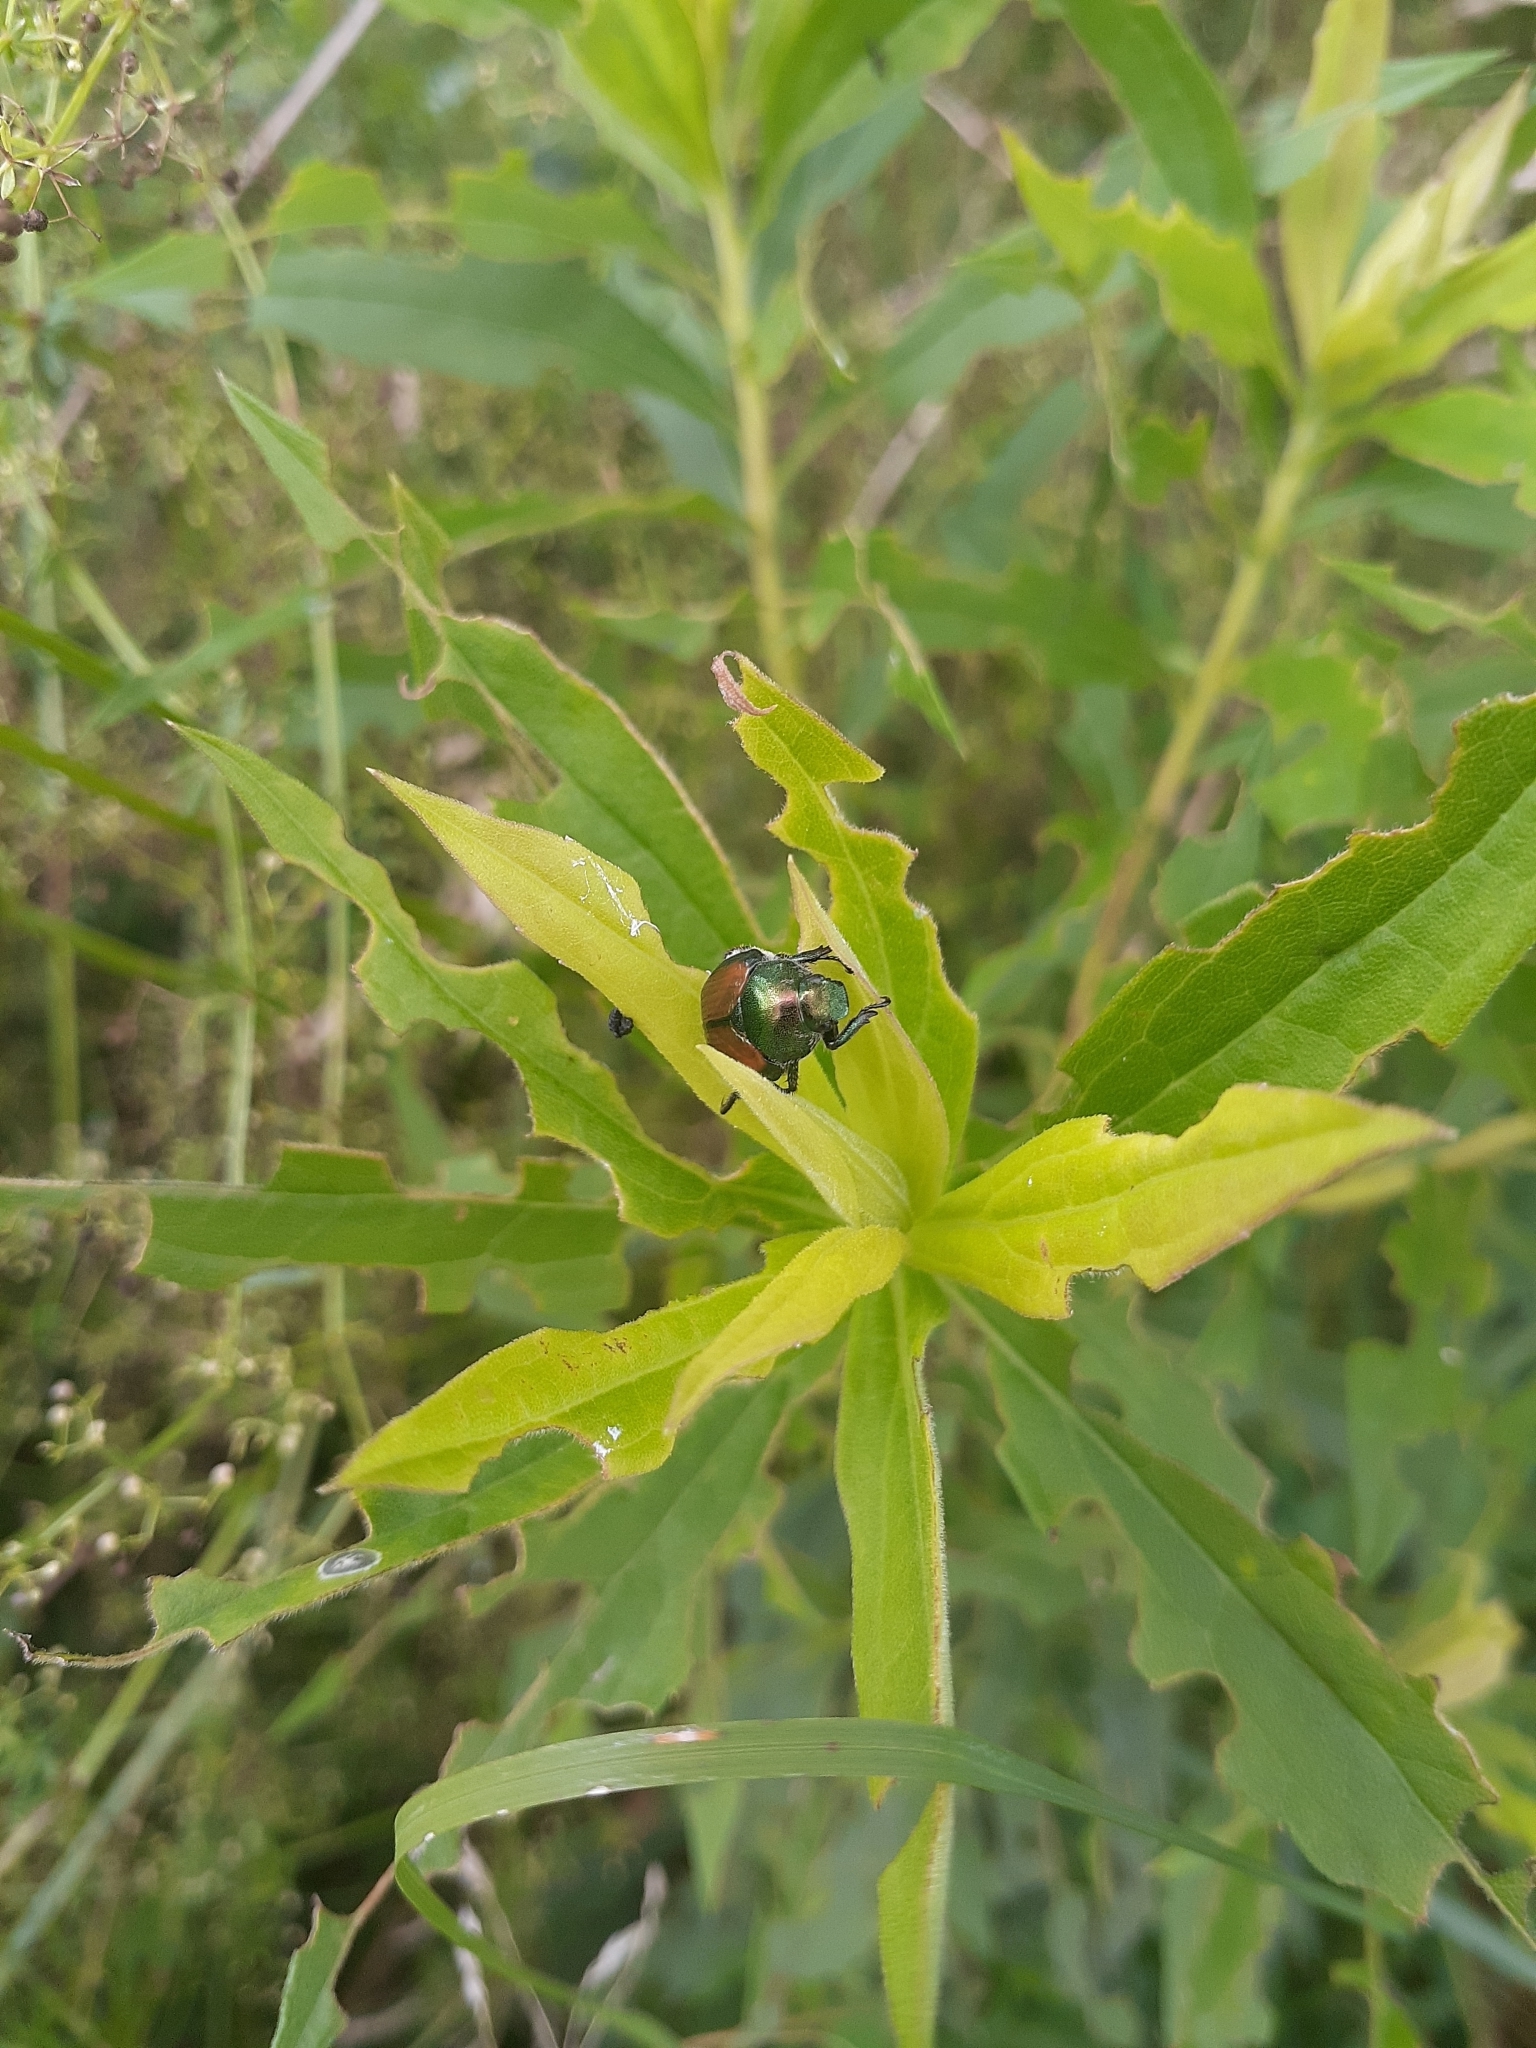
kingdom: Animalia
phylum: Arthropoda
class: Insecta
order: Coleoptera
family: Scarabaeidae
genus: Popillia
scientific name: Popillia japonica
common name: Japanese beetle
